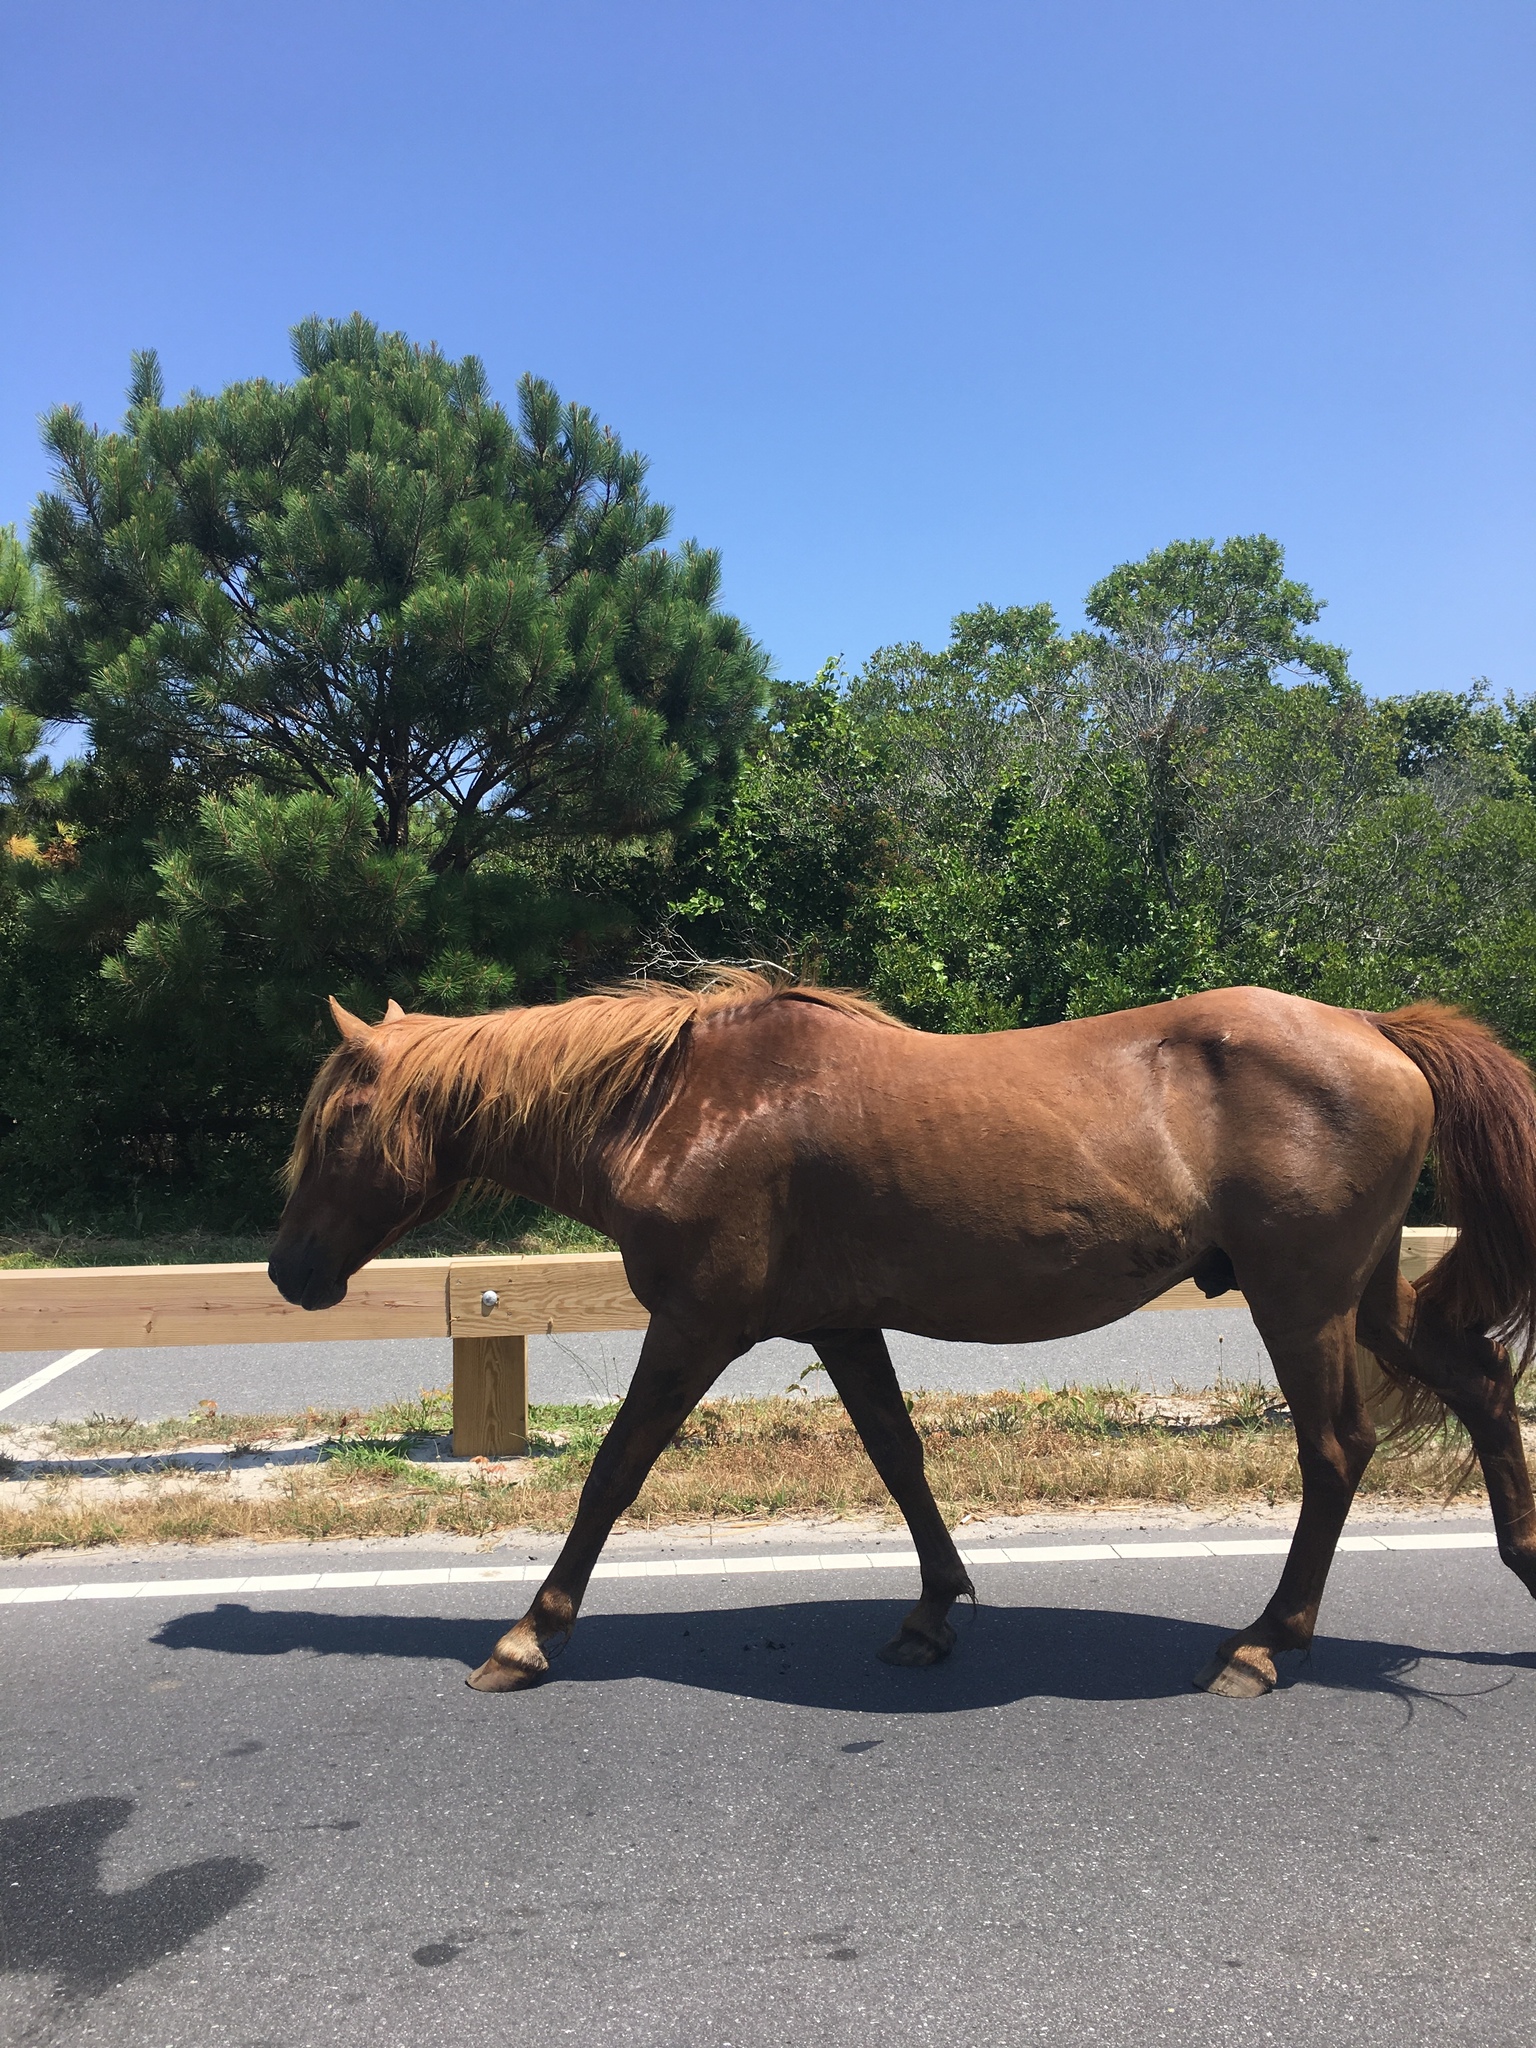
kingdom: Animalia
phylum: Chordata
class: Mammalia
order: Perissodactyla
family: Equidae
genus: Equus
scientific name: Equus caballus
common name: Horse
